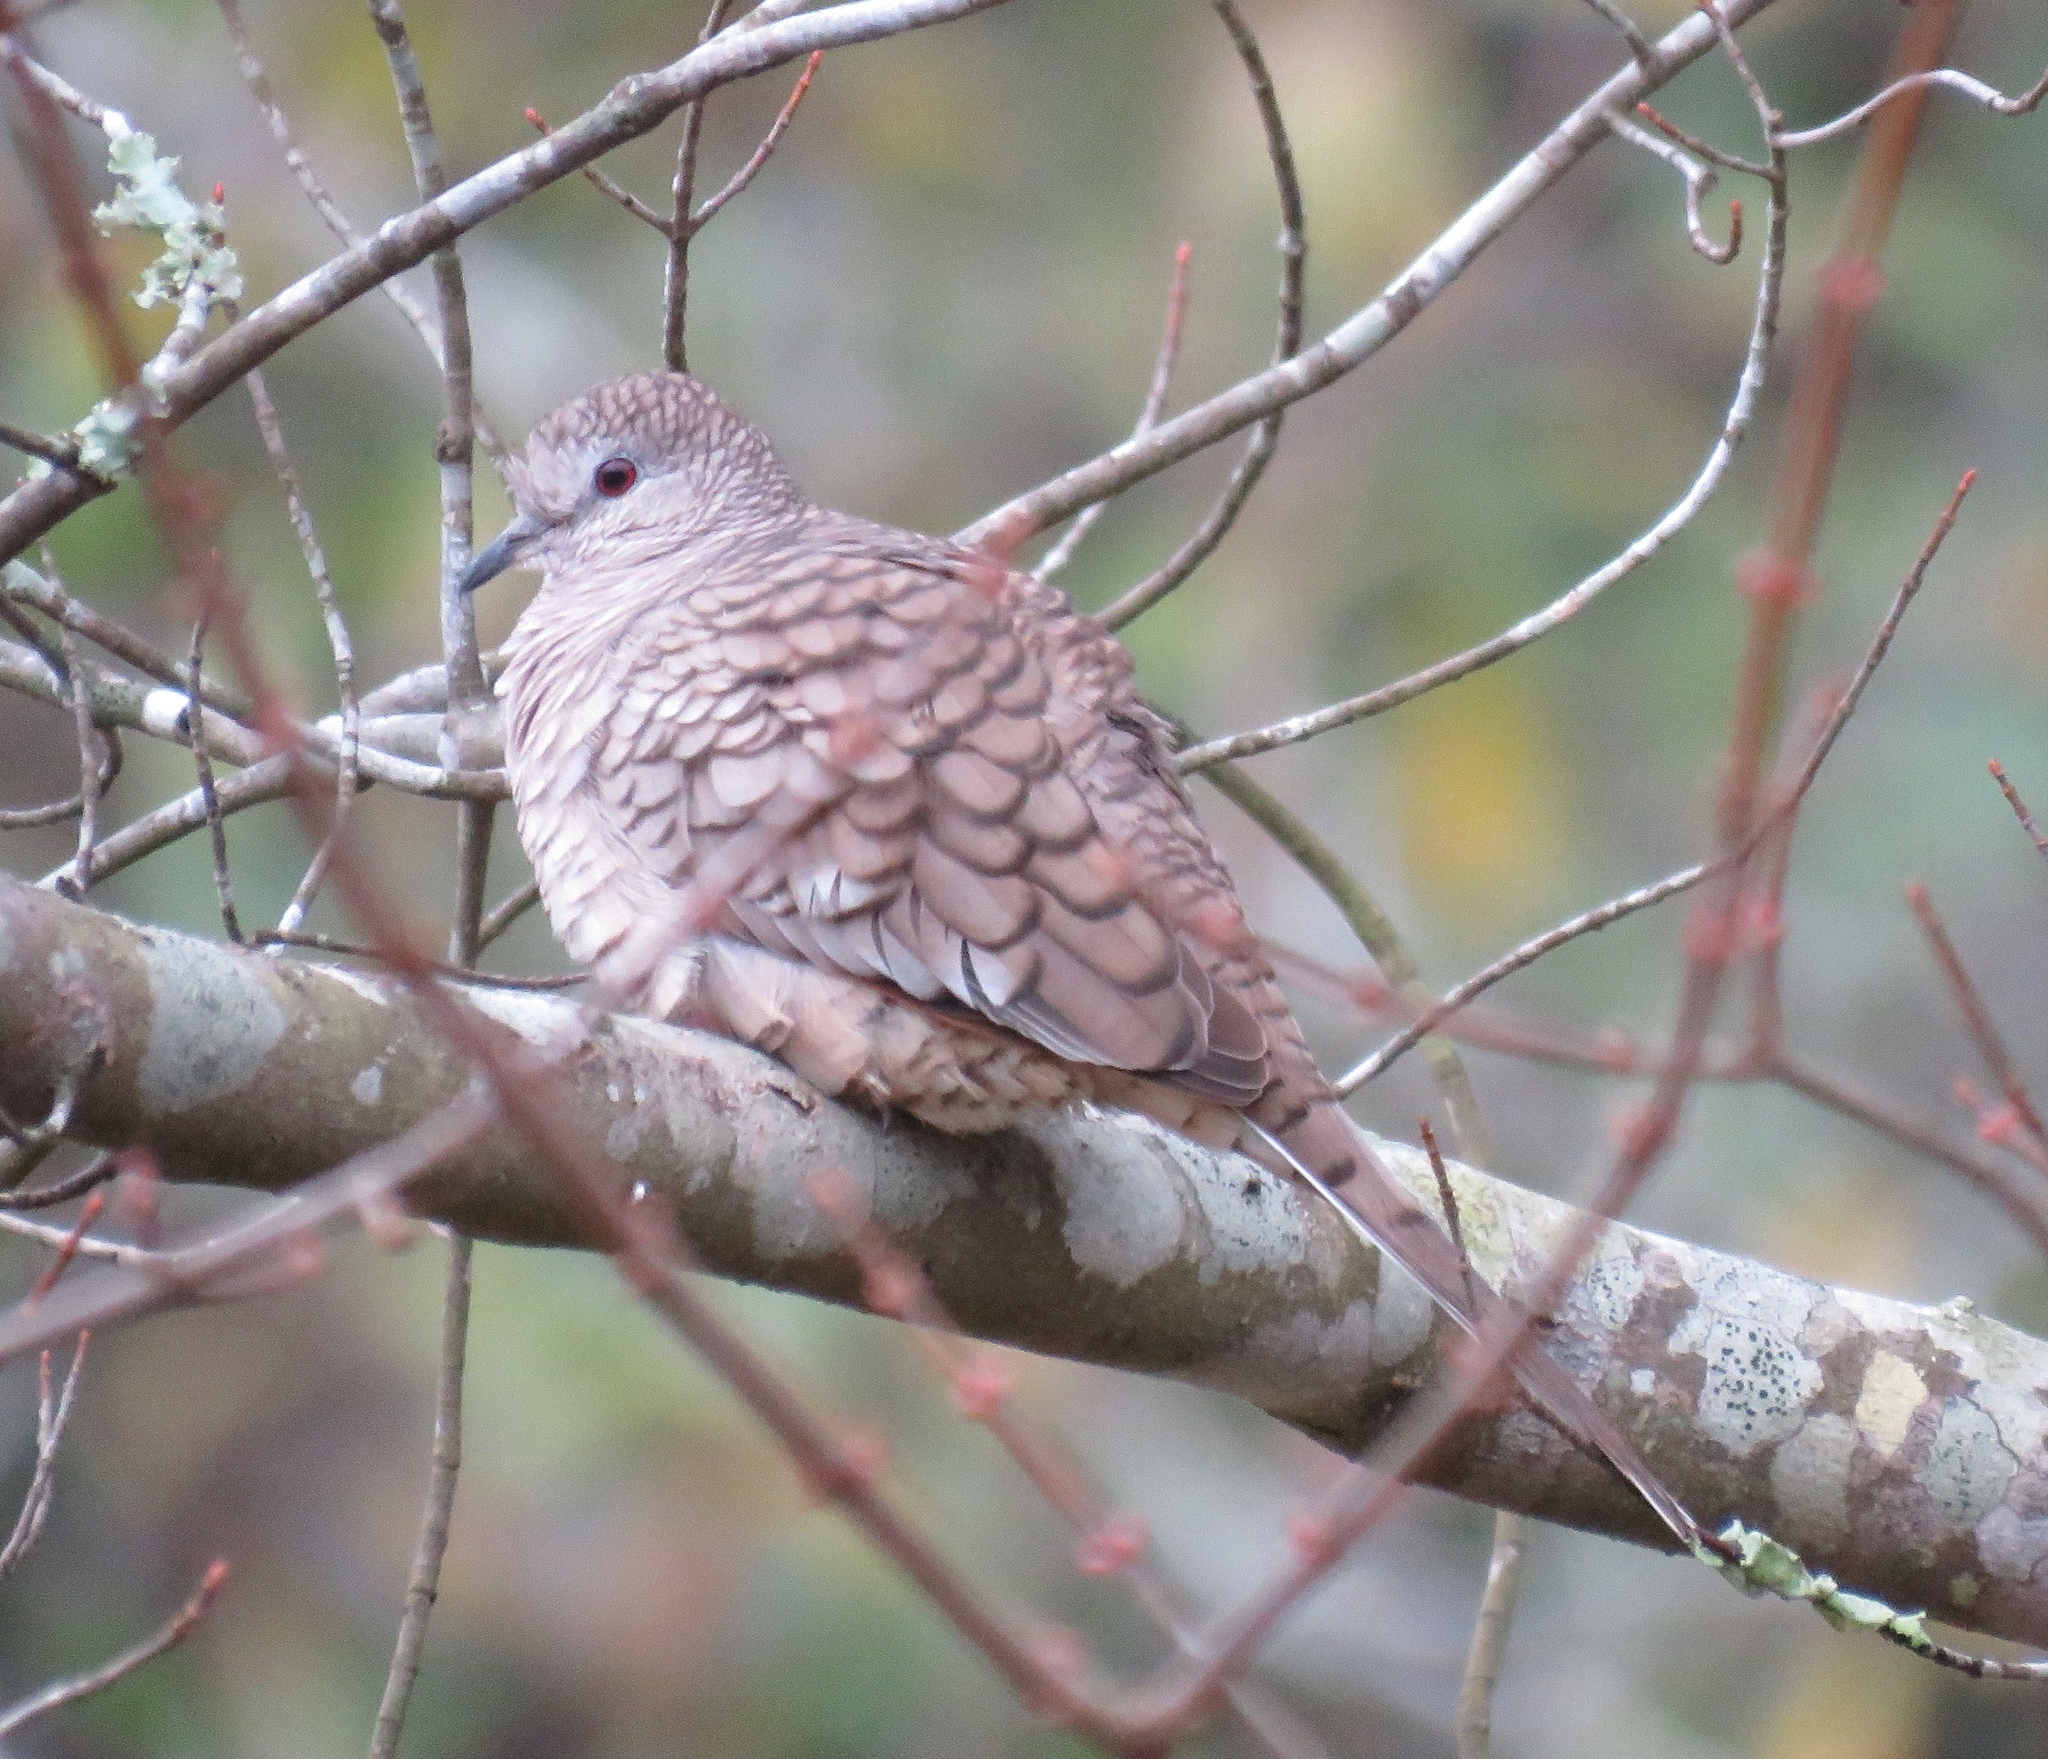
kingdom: Animalia
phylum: Chordata
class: Aves
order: Columbiformes
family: Columbidae
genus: Columbina
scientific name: Columbina inca
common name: Inca dove
